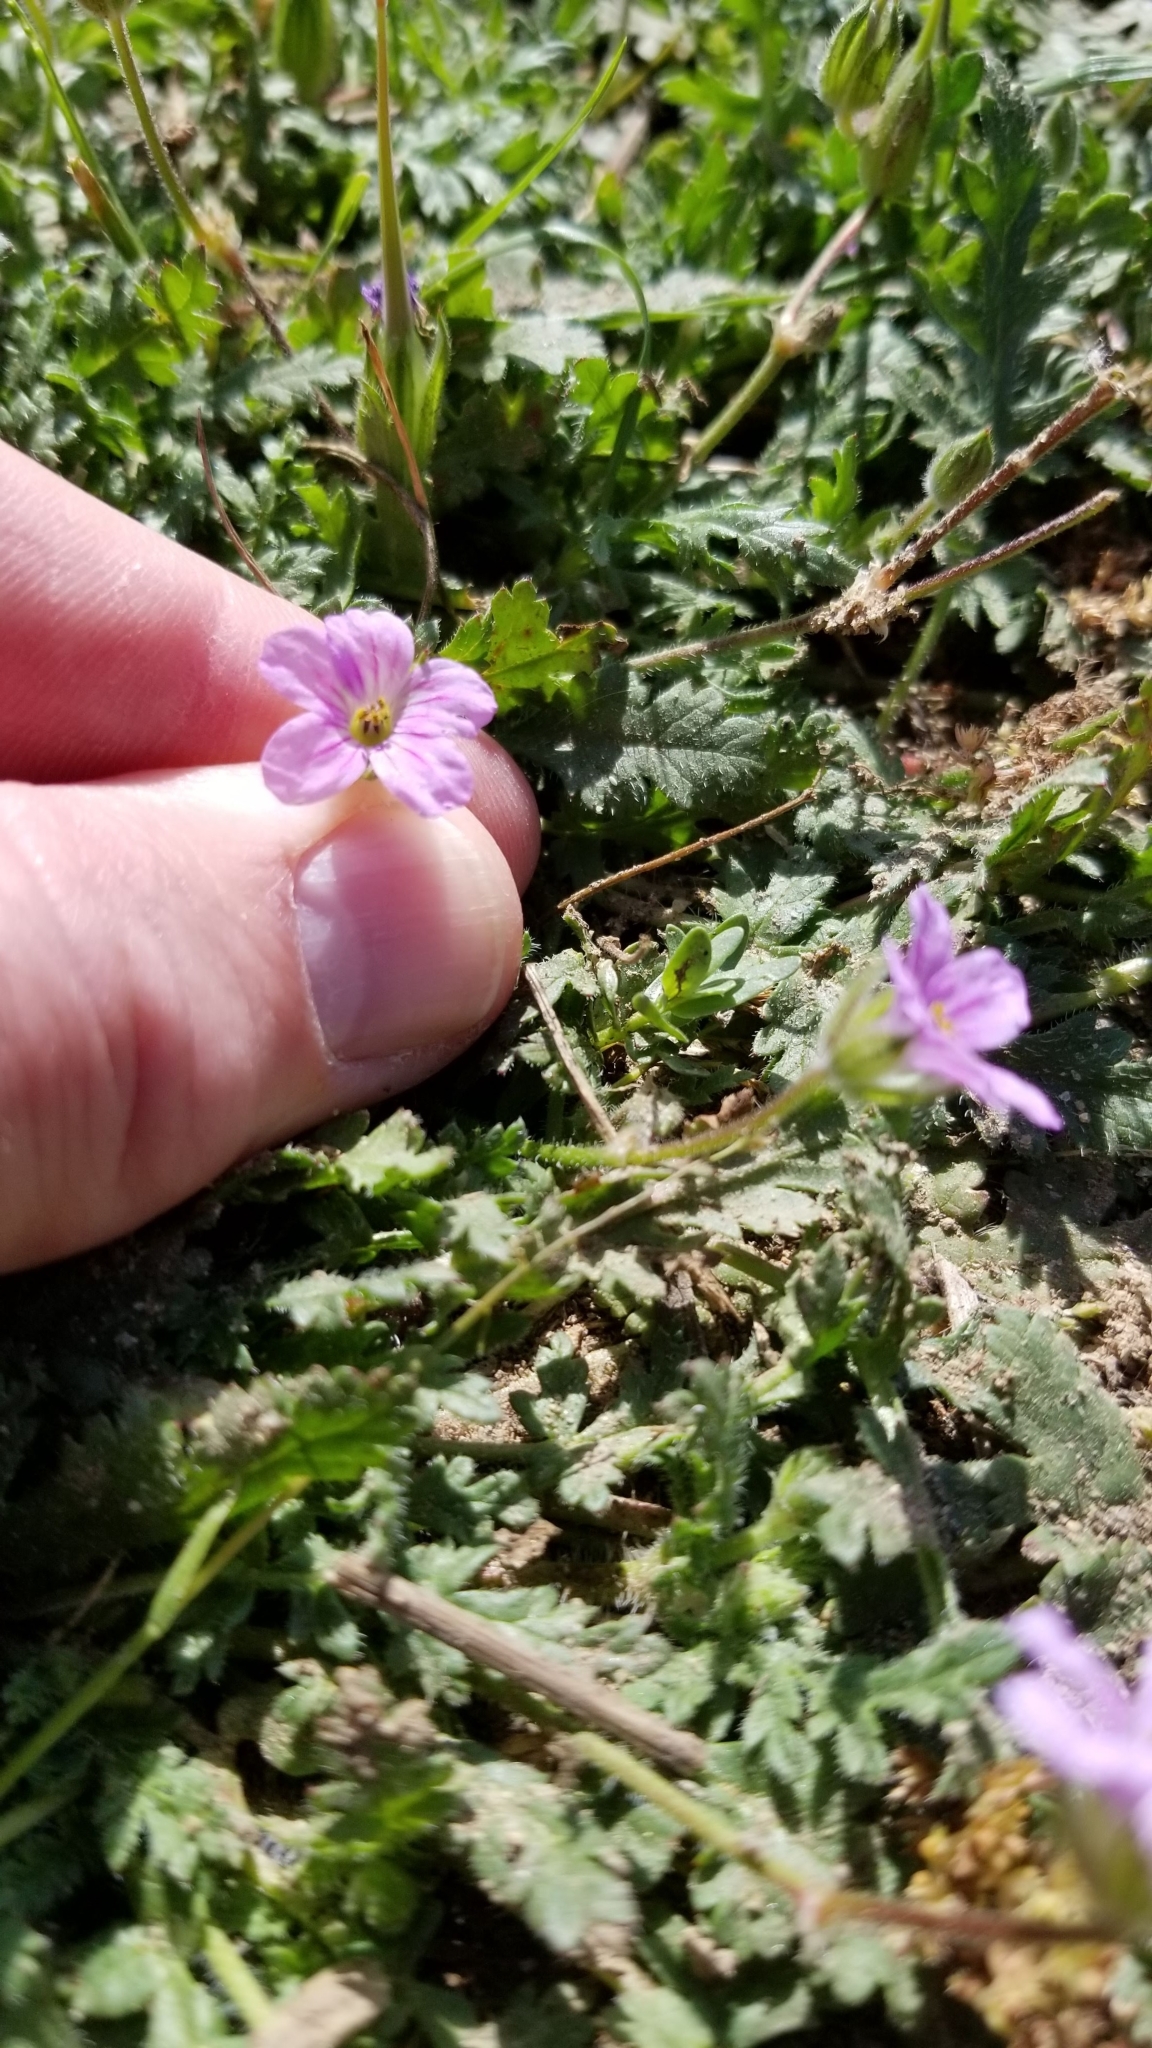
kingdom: Plantae
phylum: Tracheophyta
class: Magnoliopsida
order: Geraniales
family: Geraniaceae
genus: Erodium
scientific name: Erodium botrys
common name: Mediterranean stork's-bill
